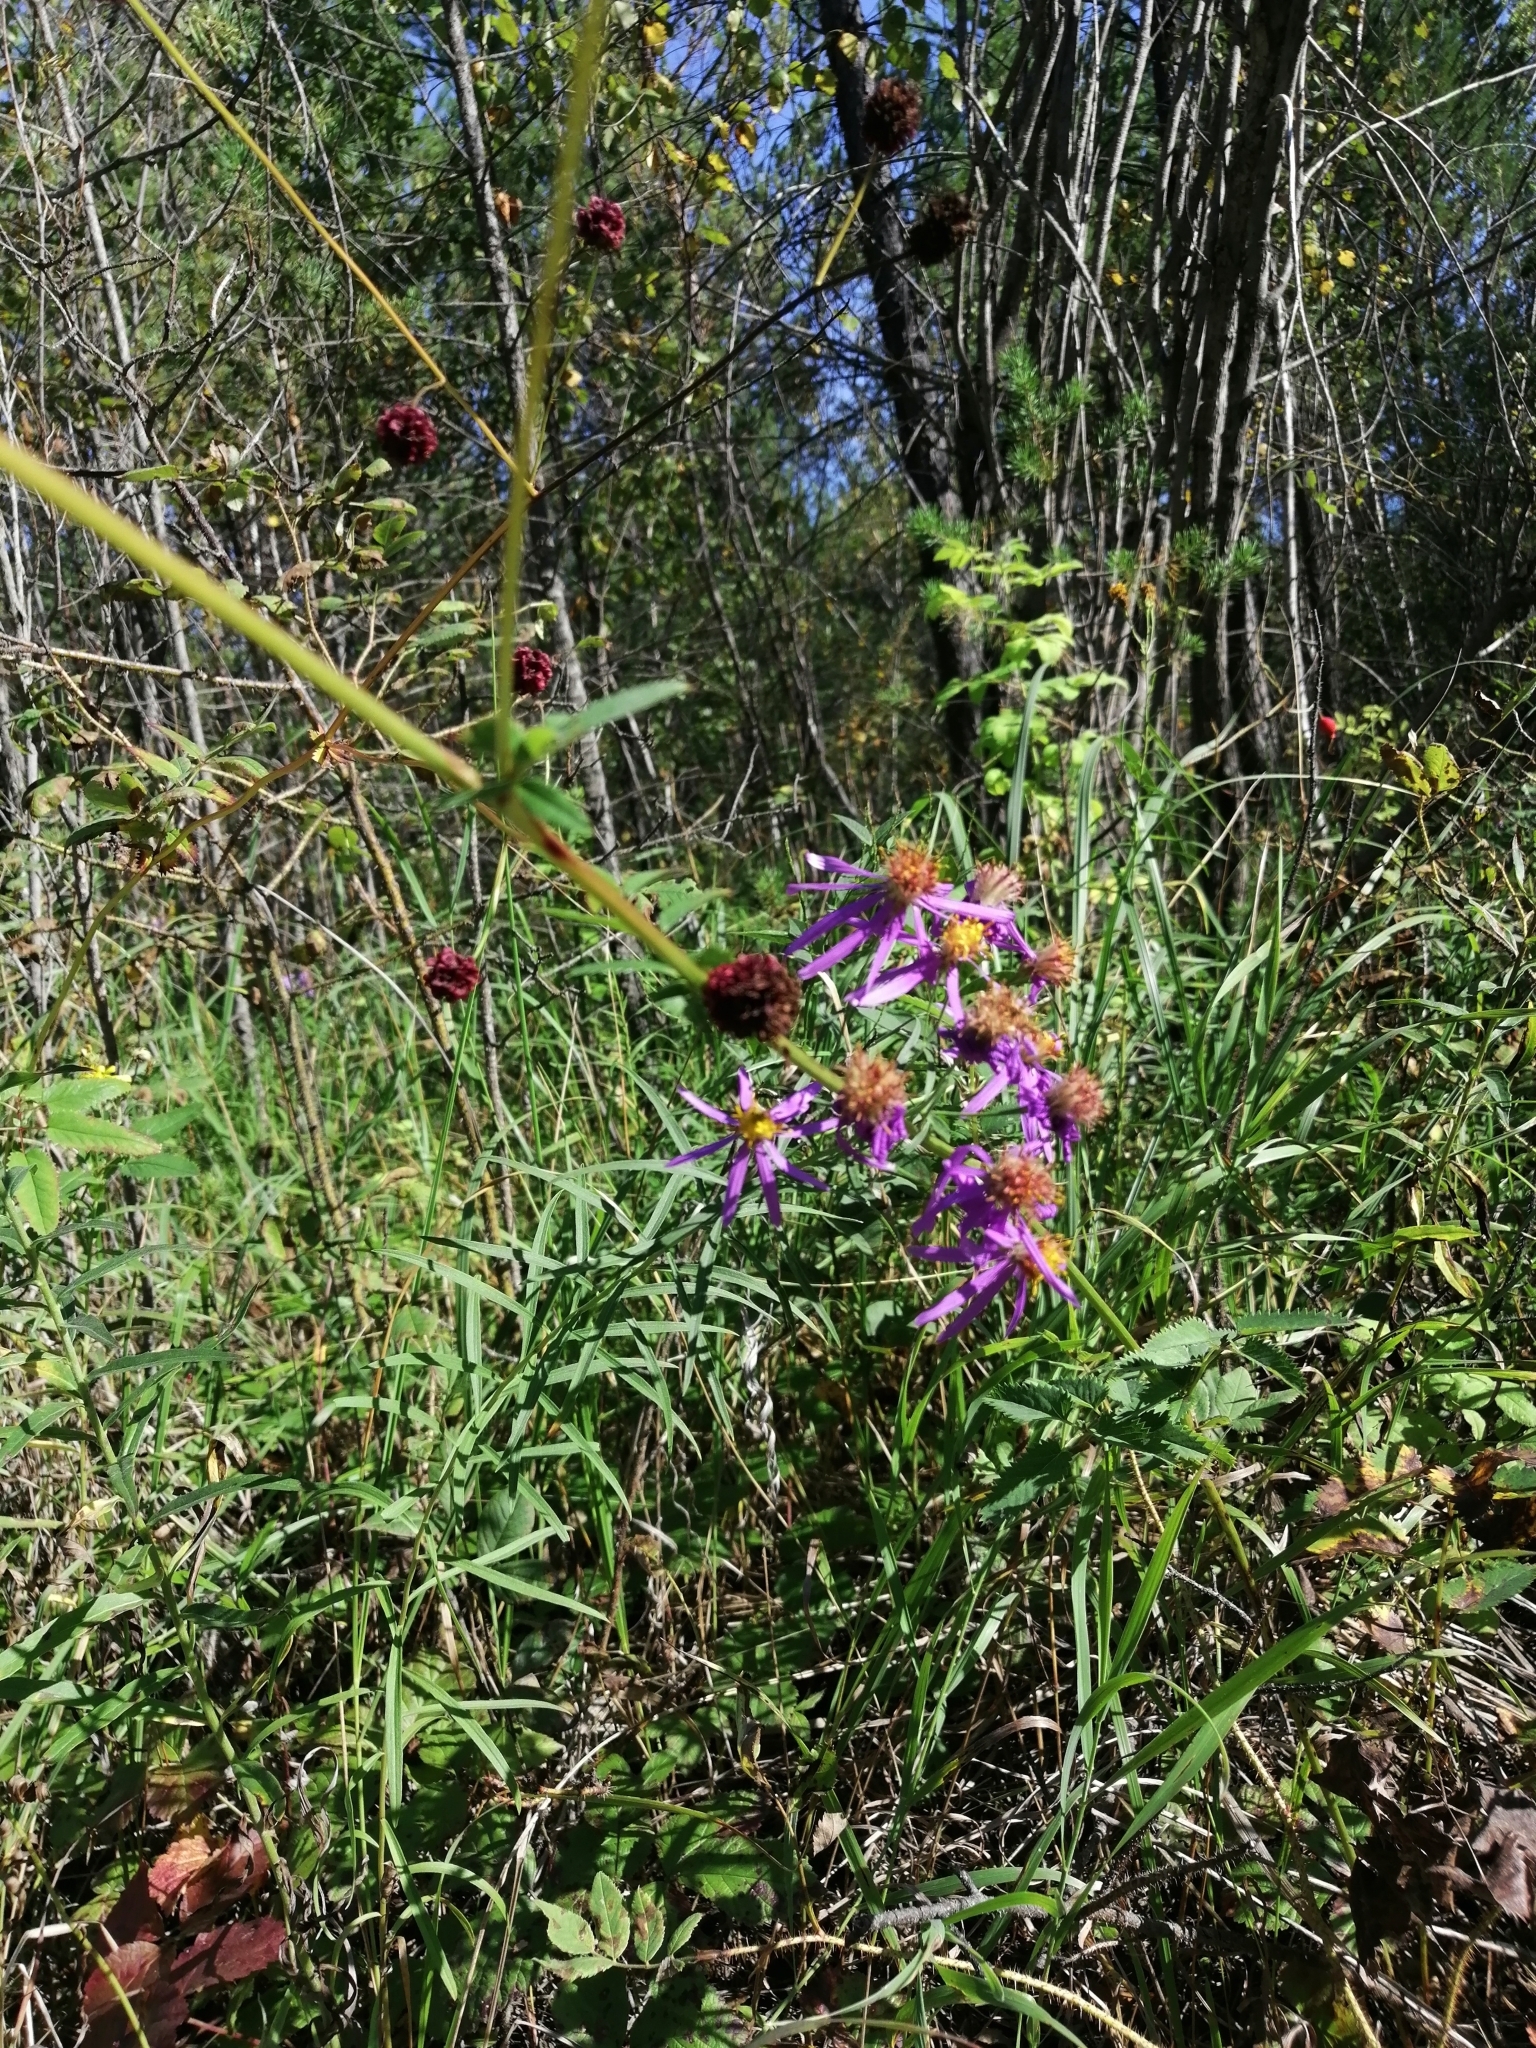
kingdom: Plantae
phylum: Tracheophyta
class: Magnoliopsida
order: Asterales
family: Asteraceae
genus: Galatella
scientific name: Galatella dahurica
